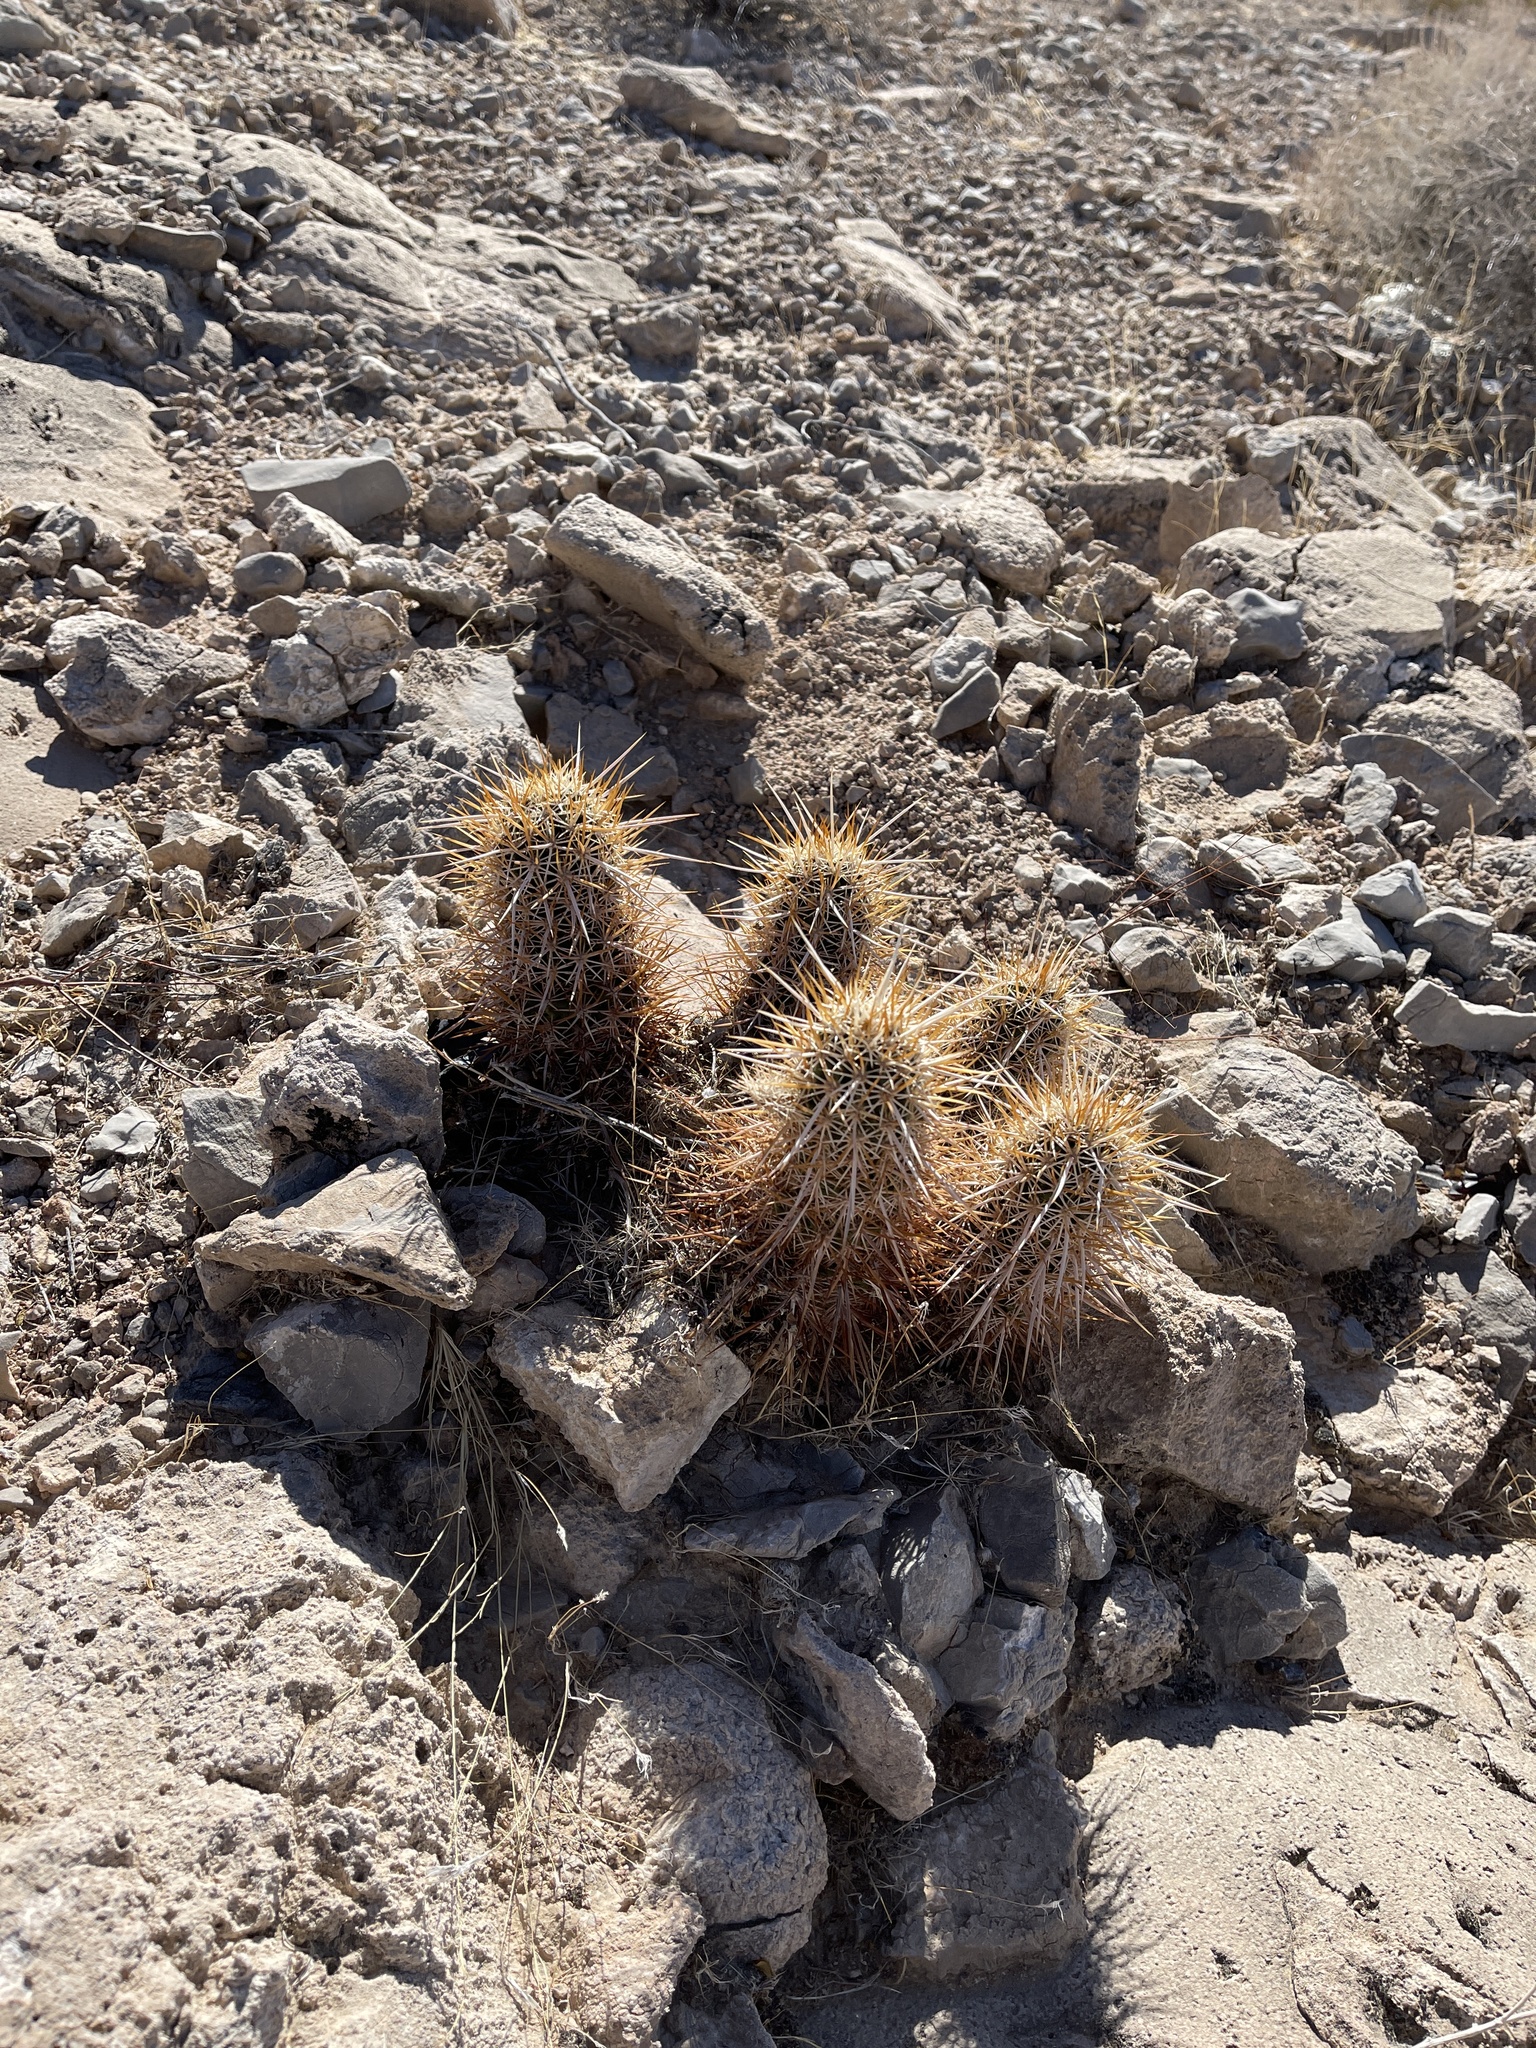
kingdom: Plantae
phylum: Tracheophyta
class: Magnoliopsida
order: Caryophyllales
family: Cactaceae
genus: Echinocereus
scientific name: Echinocereus engelmannii
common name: Engelmann's hedgehog cactus
